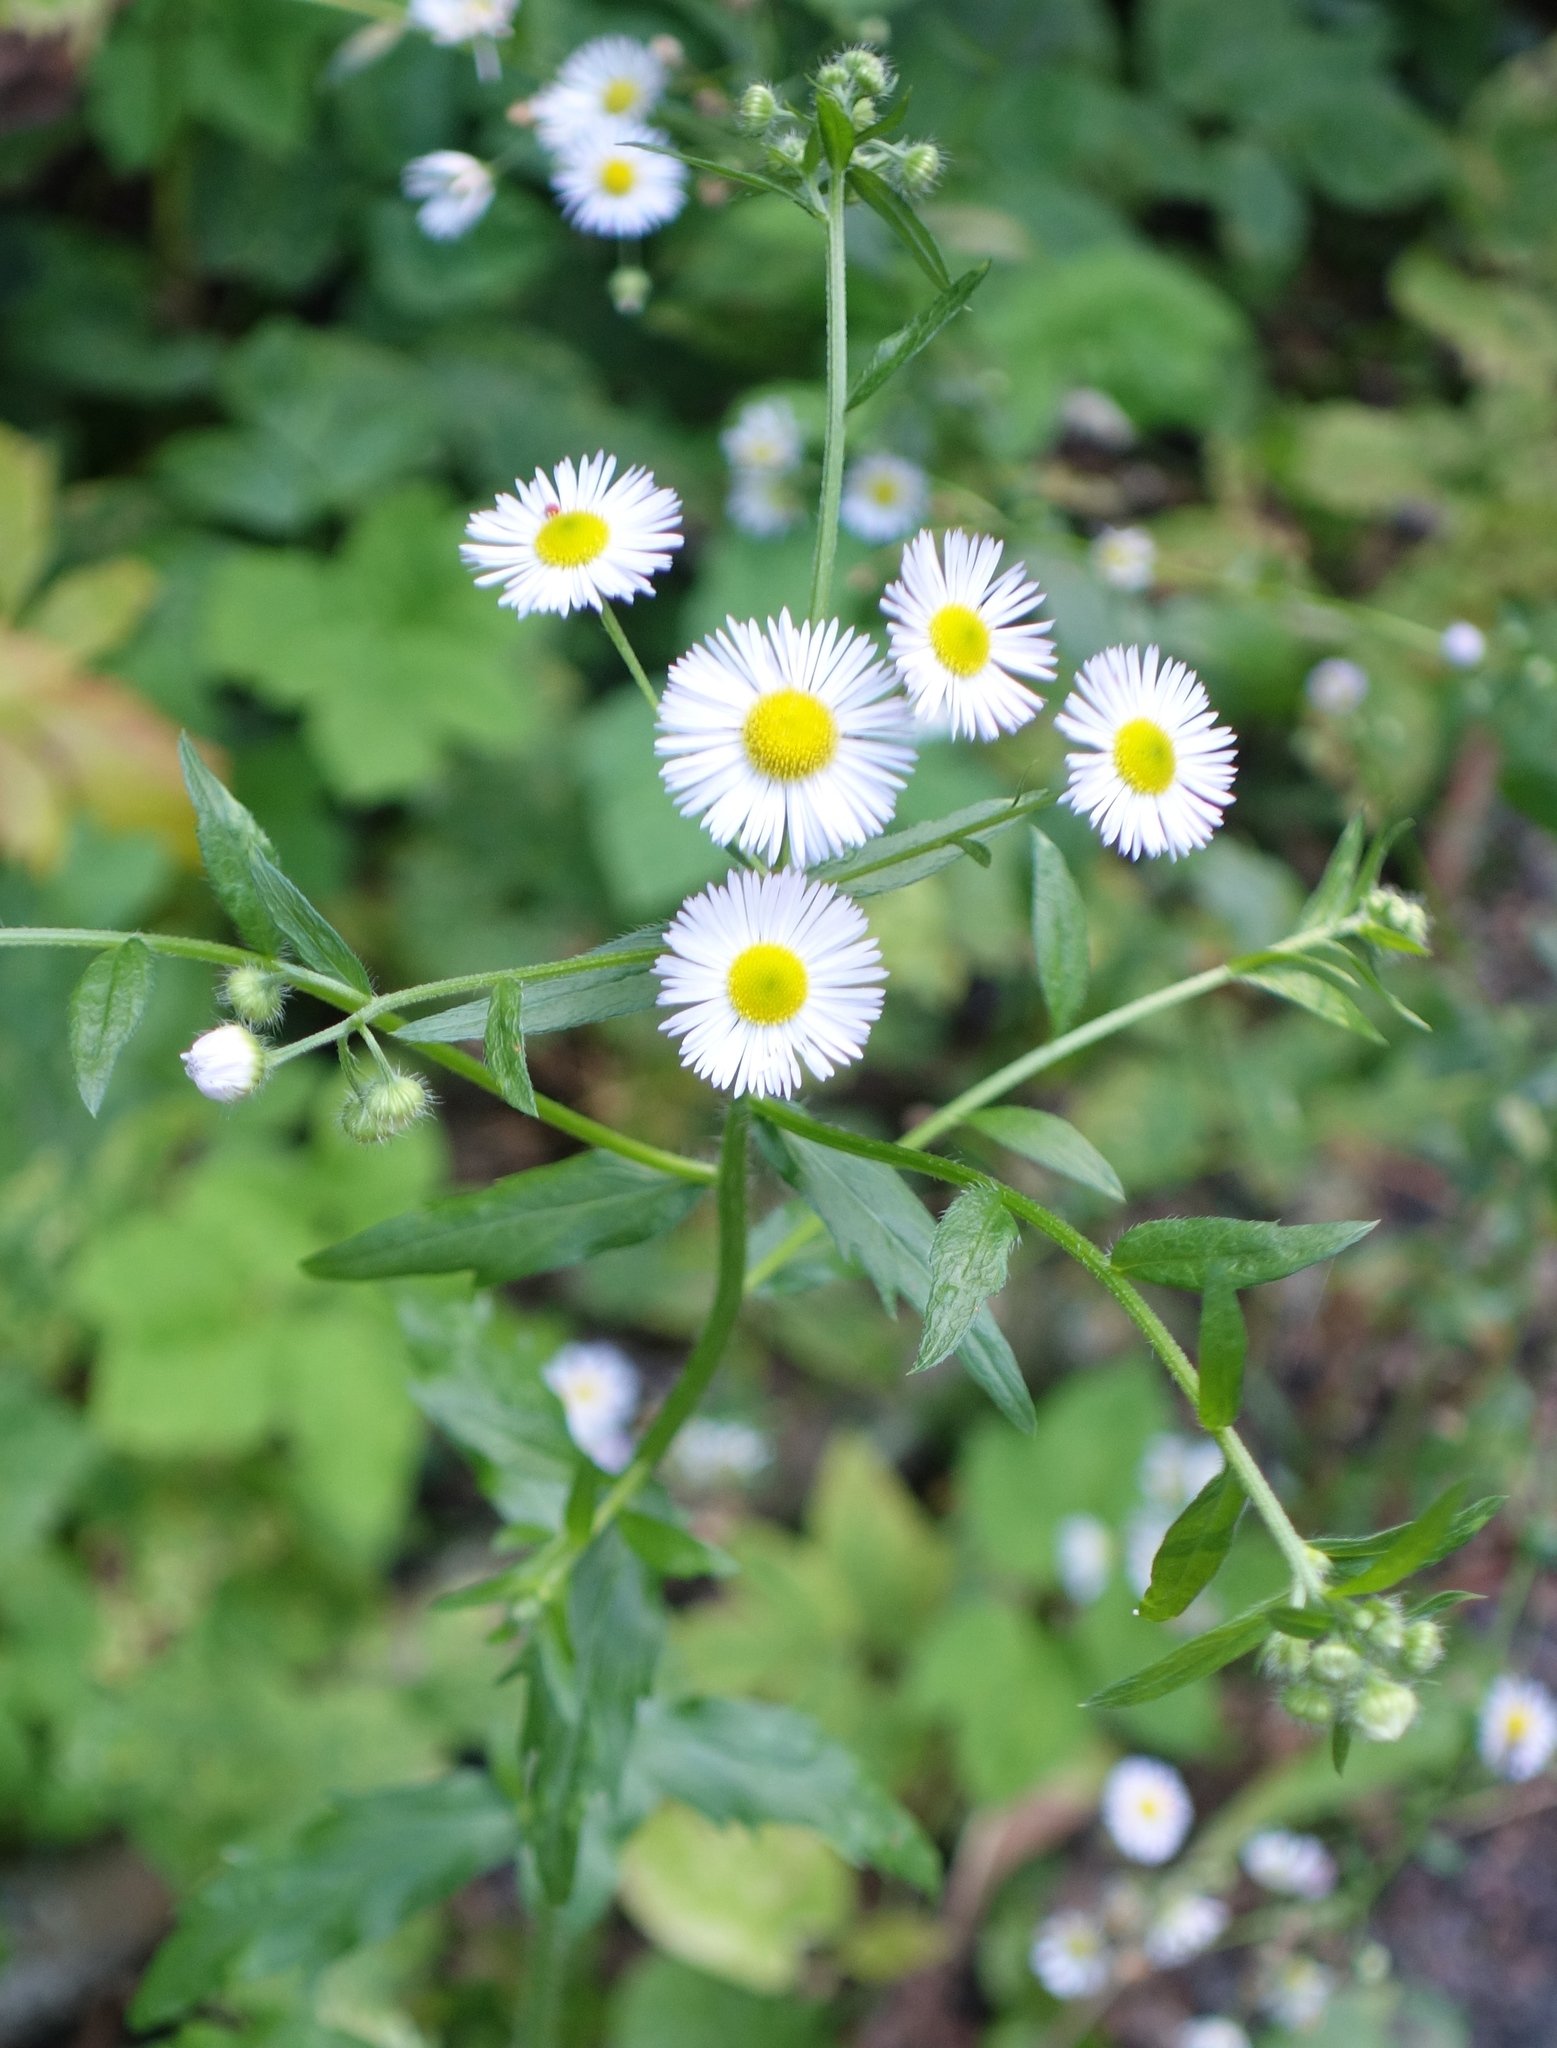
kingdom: Plantae
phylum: Tracheophyta
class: Magnoliopsida
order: Asterales
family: Asteraceae
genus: Erigeron
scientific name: Erigeron annuus
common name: Tall fleabane
